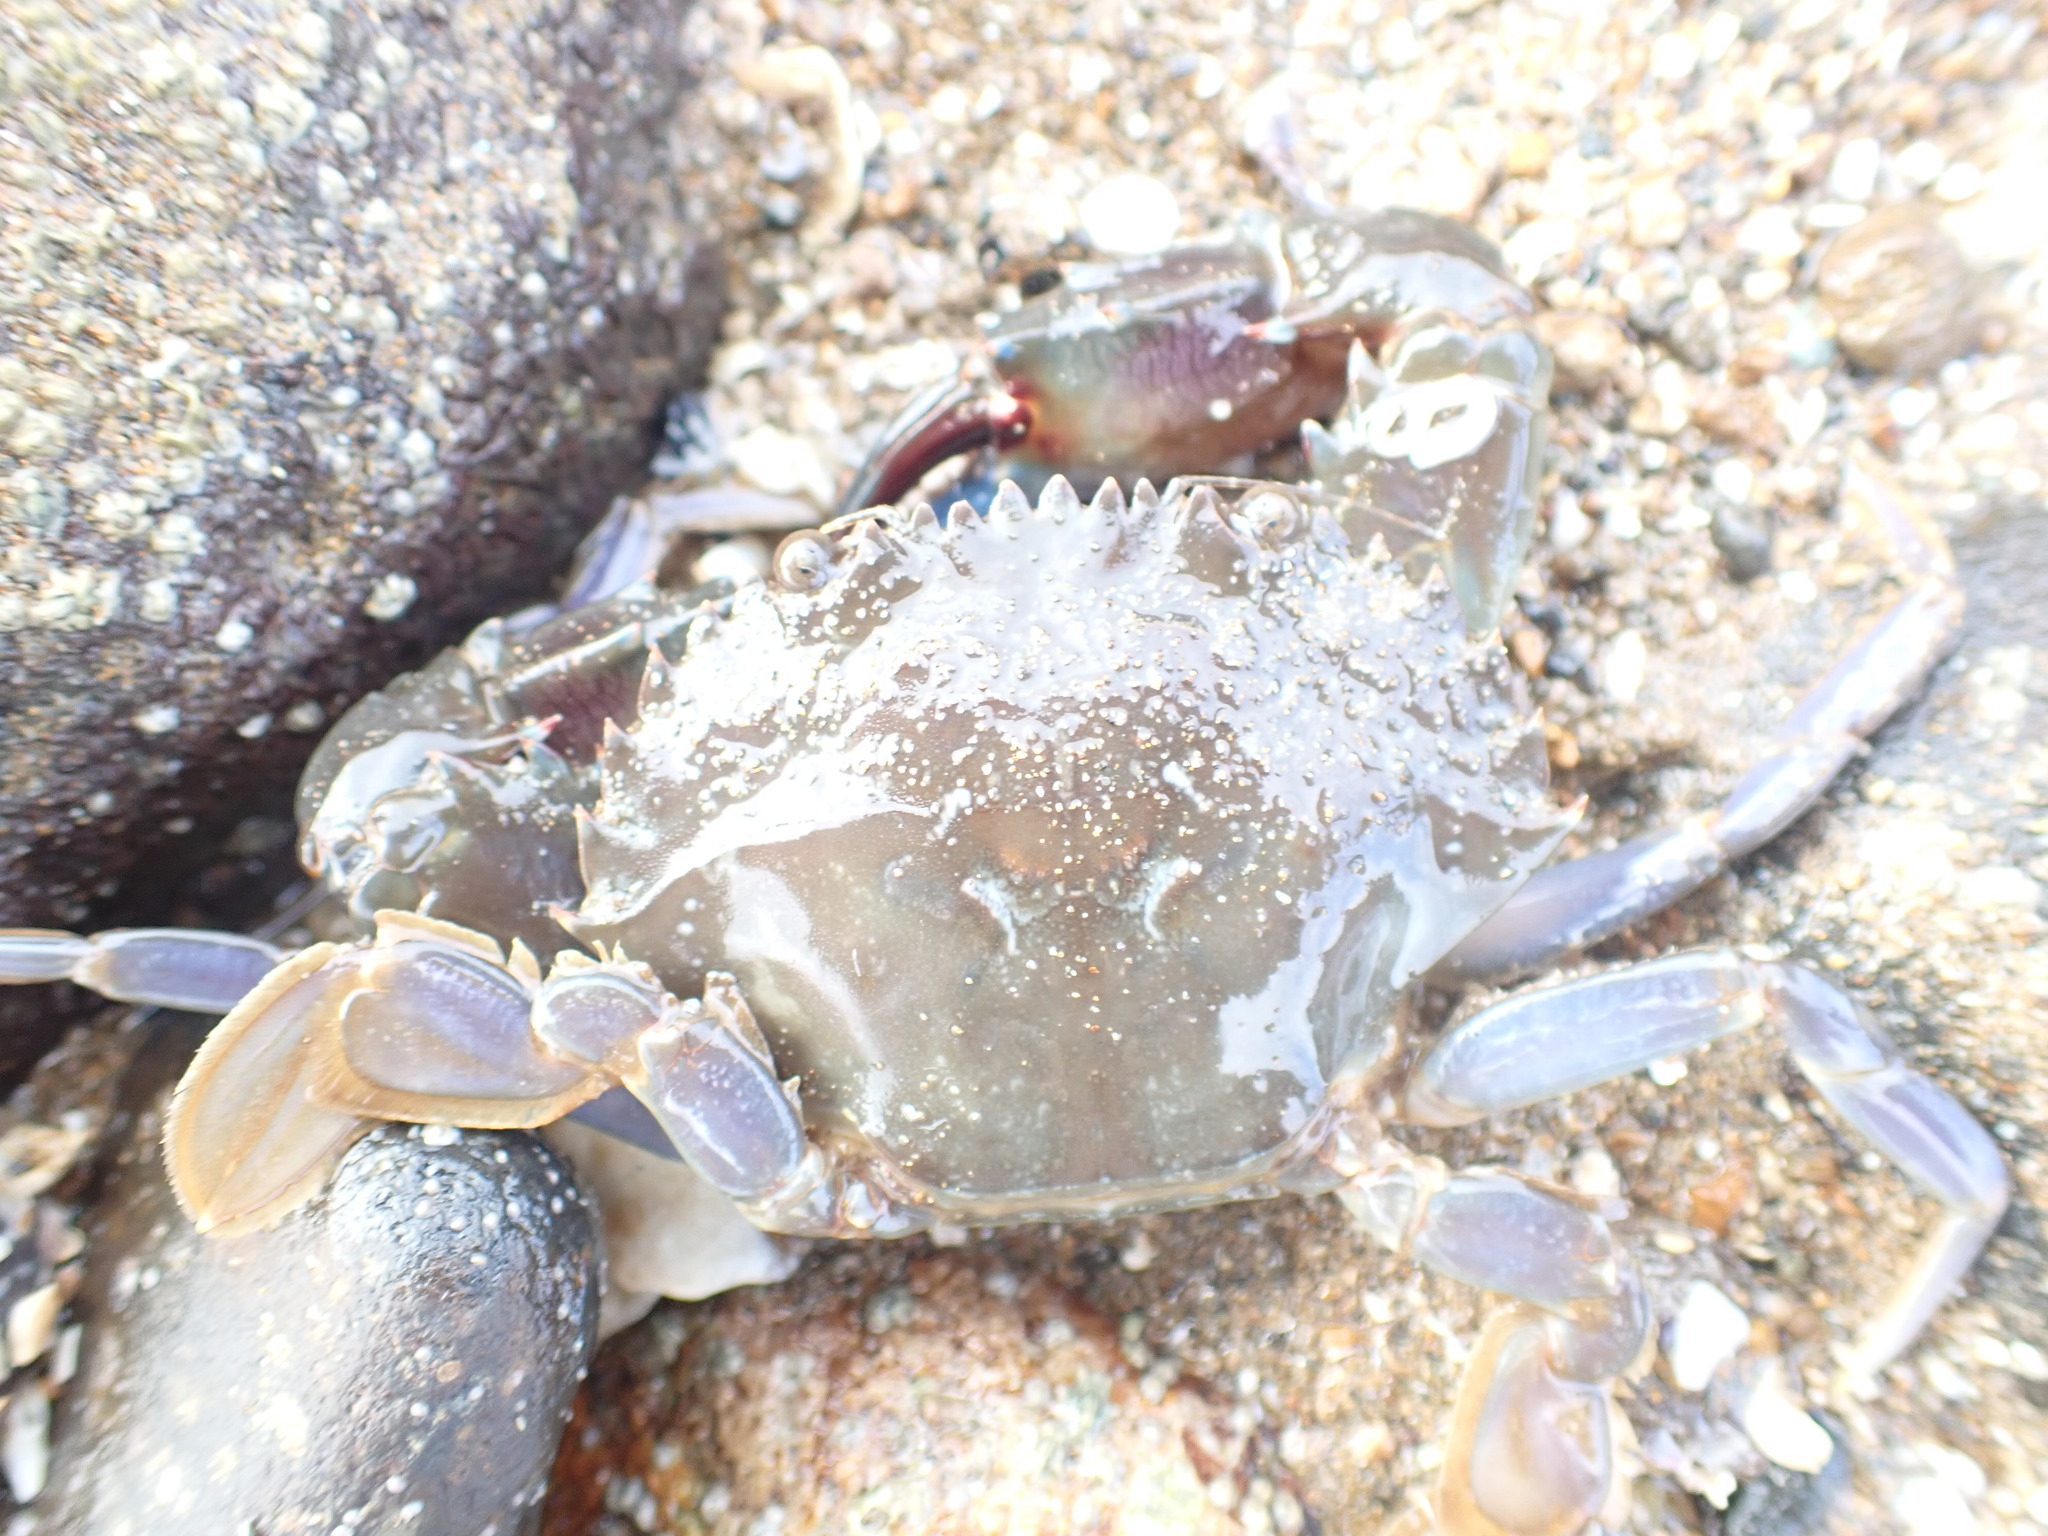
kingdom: Animalia
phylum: Arthropoda
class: Malacostraca
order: Decapoda
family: Portunidae
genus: Charybdis
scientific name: Charybdis japonica
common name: Asian paddle crab
